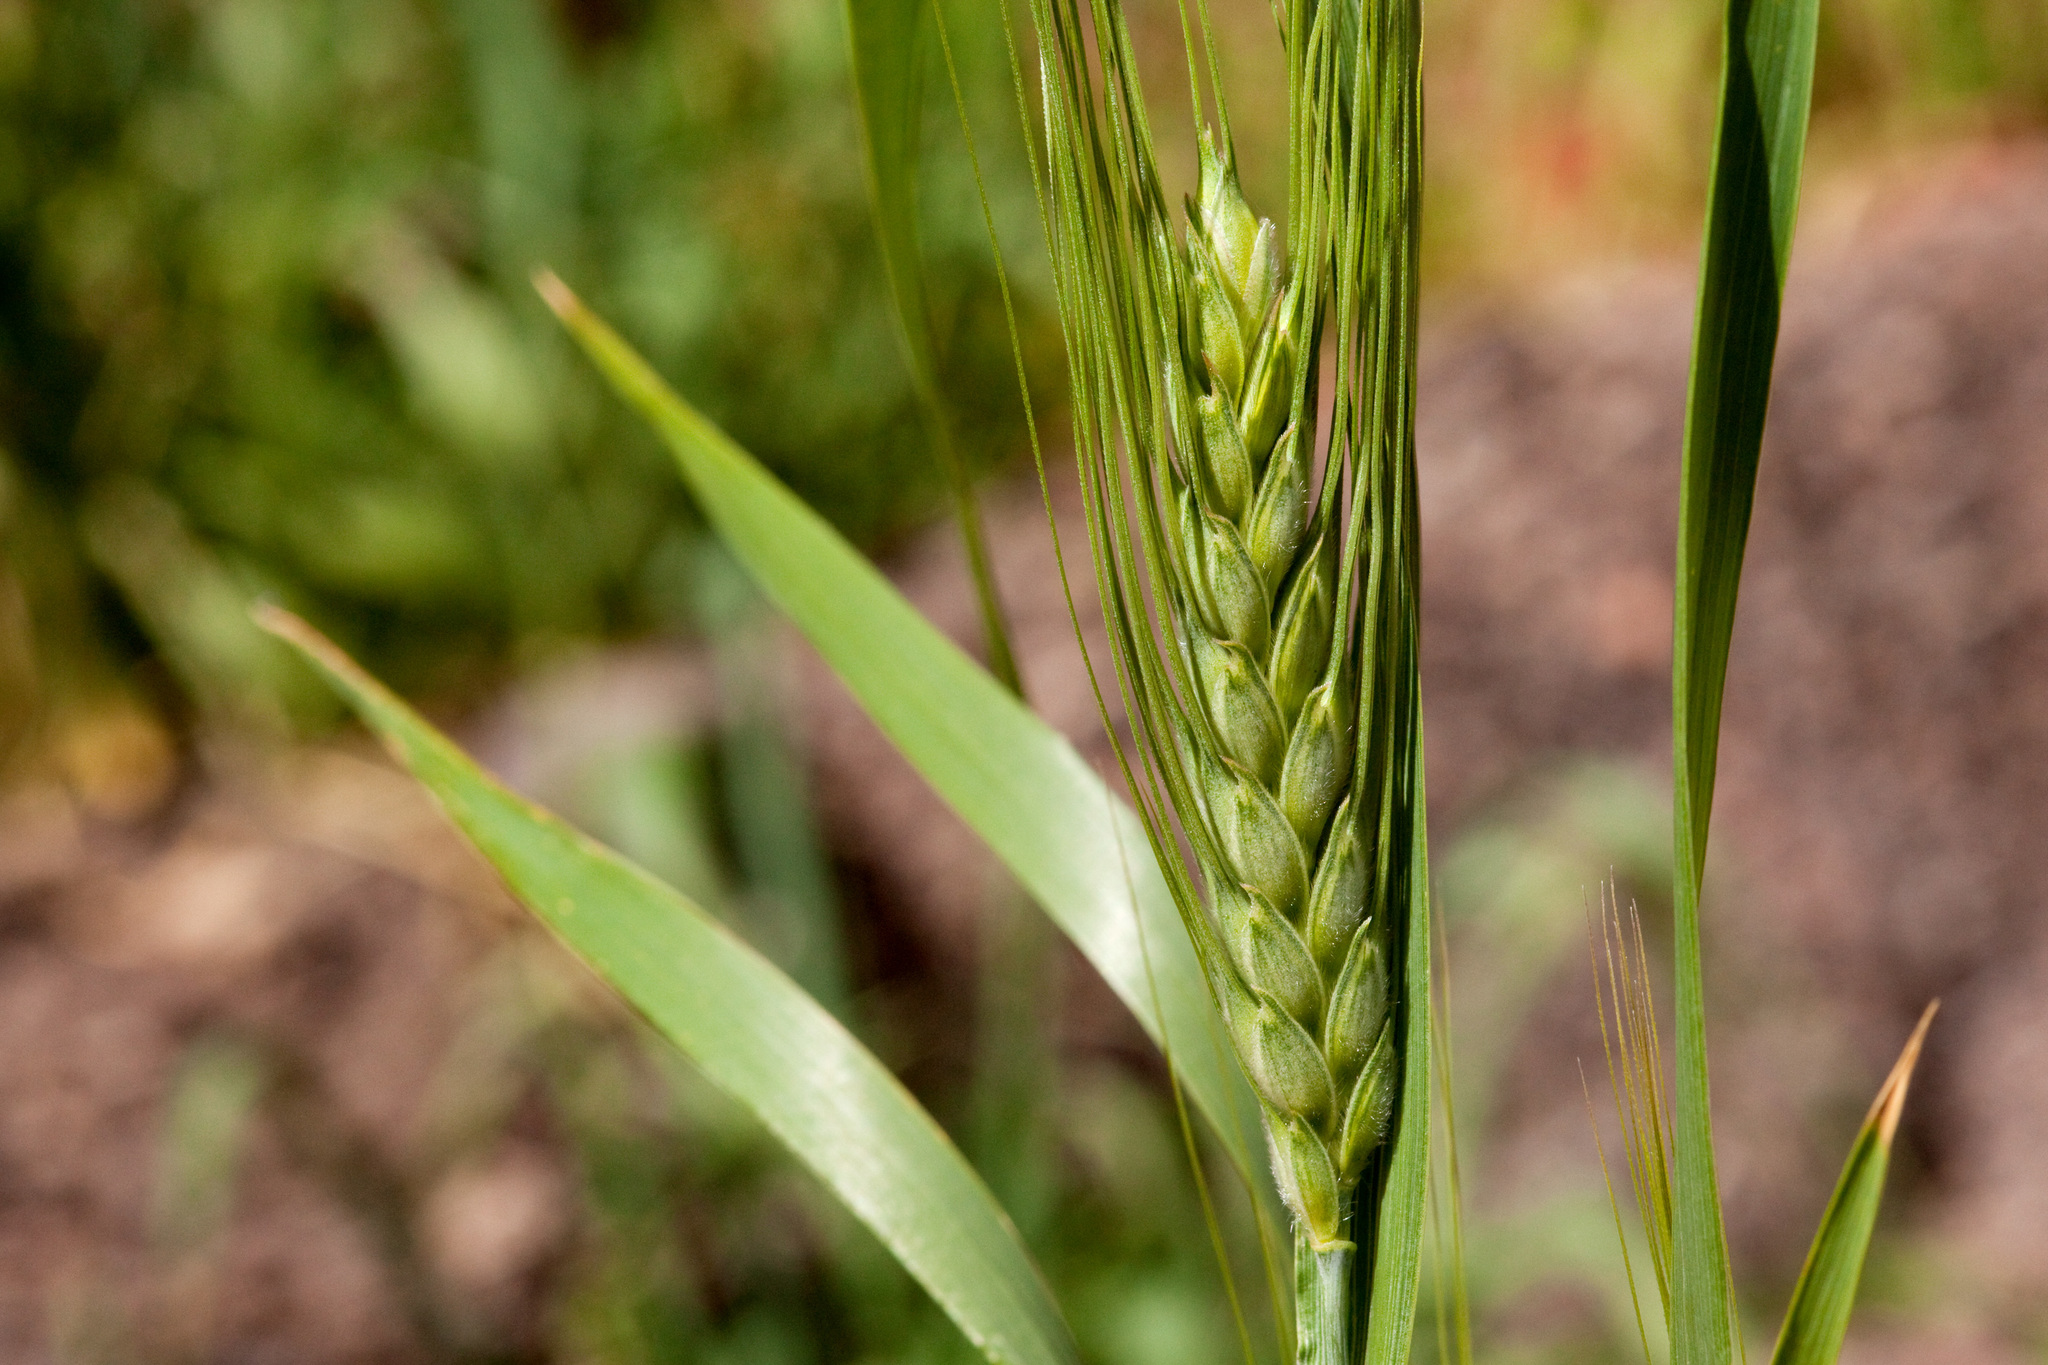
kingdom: Plantae
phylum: Tracheophyta
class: Liliopsida
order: Poales
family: Poaceae
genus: Triticum
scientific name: Triticum aestivum
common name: Common wheat
